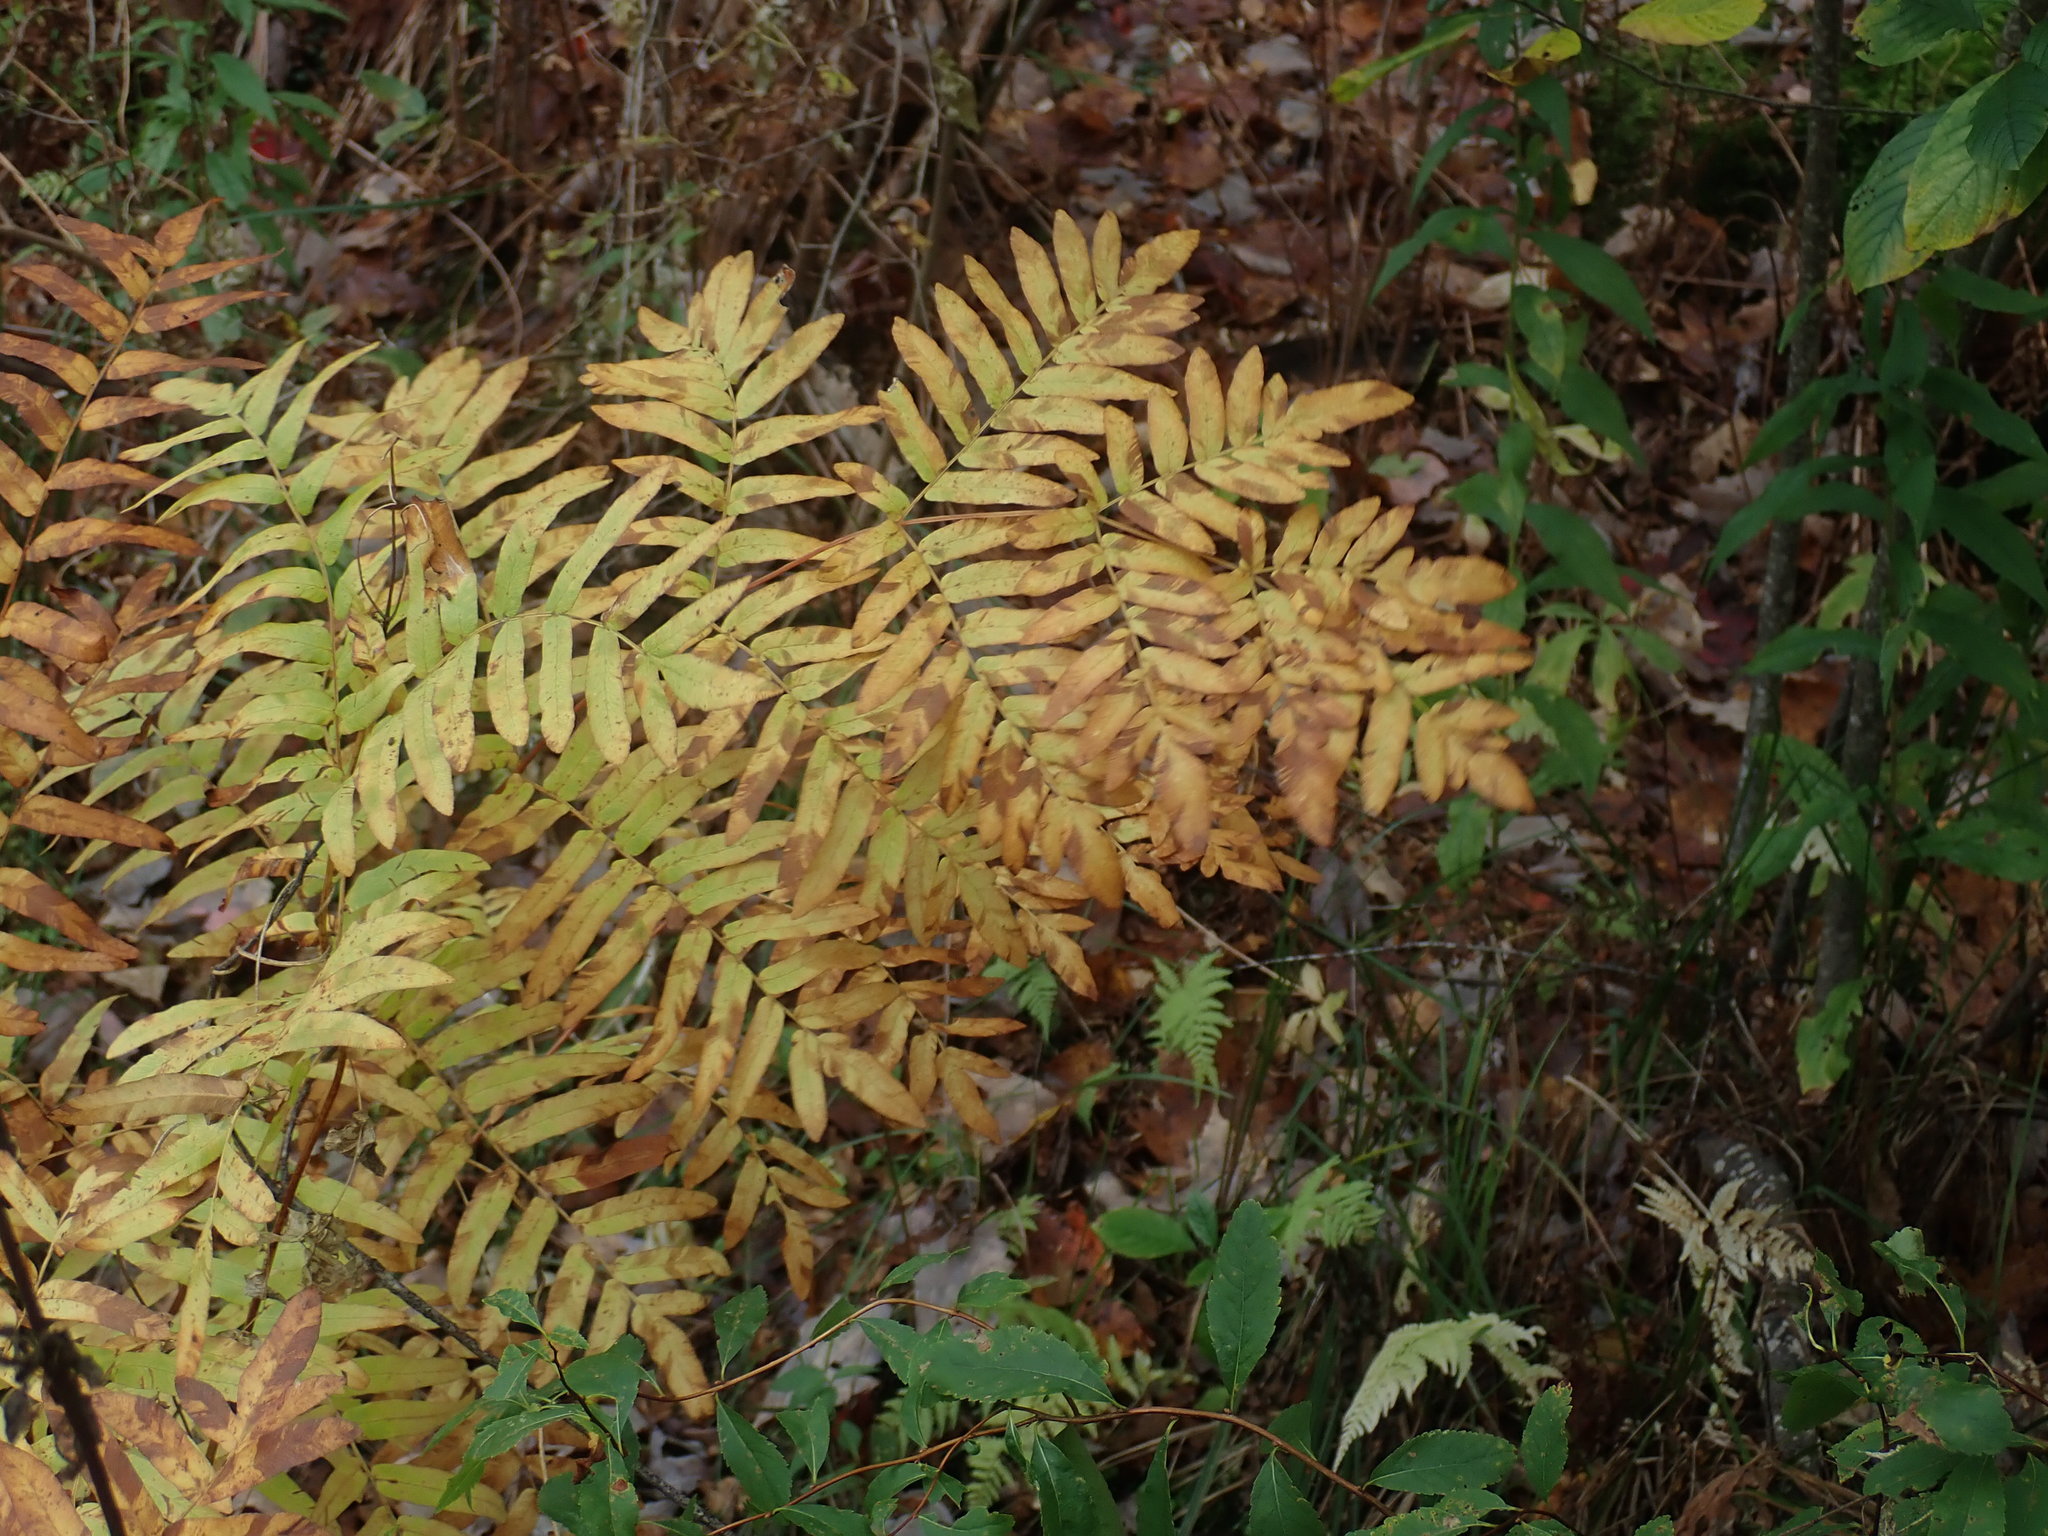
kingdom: Plantae
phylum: Tracheophyta
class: Polypodiopsida
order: Osmundales
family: Osmundaceae
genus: Osmunda
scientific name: Osmunda spectabilis
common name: American royal fern
